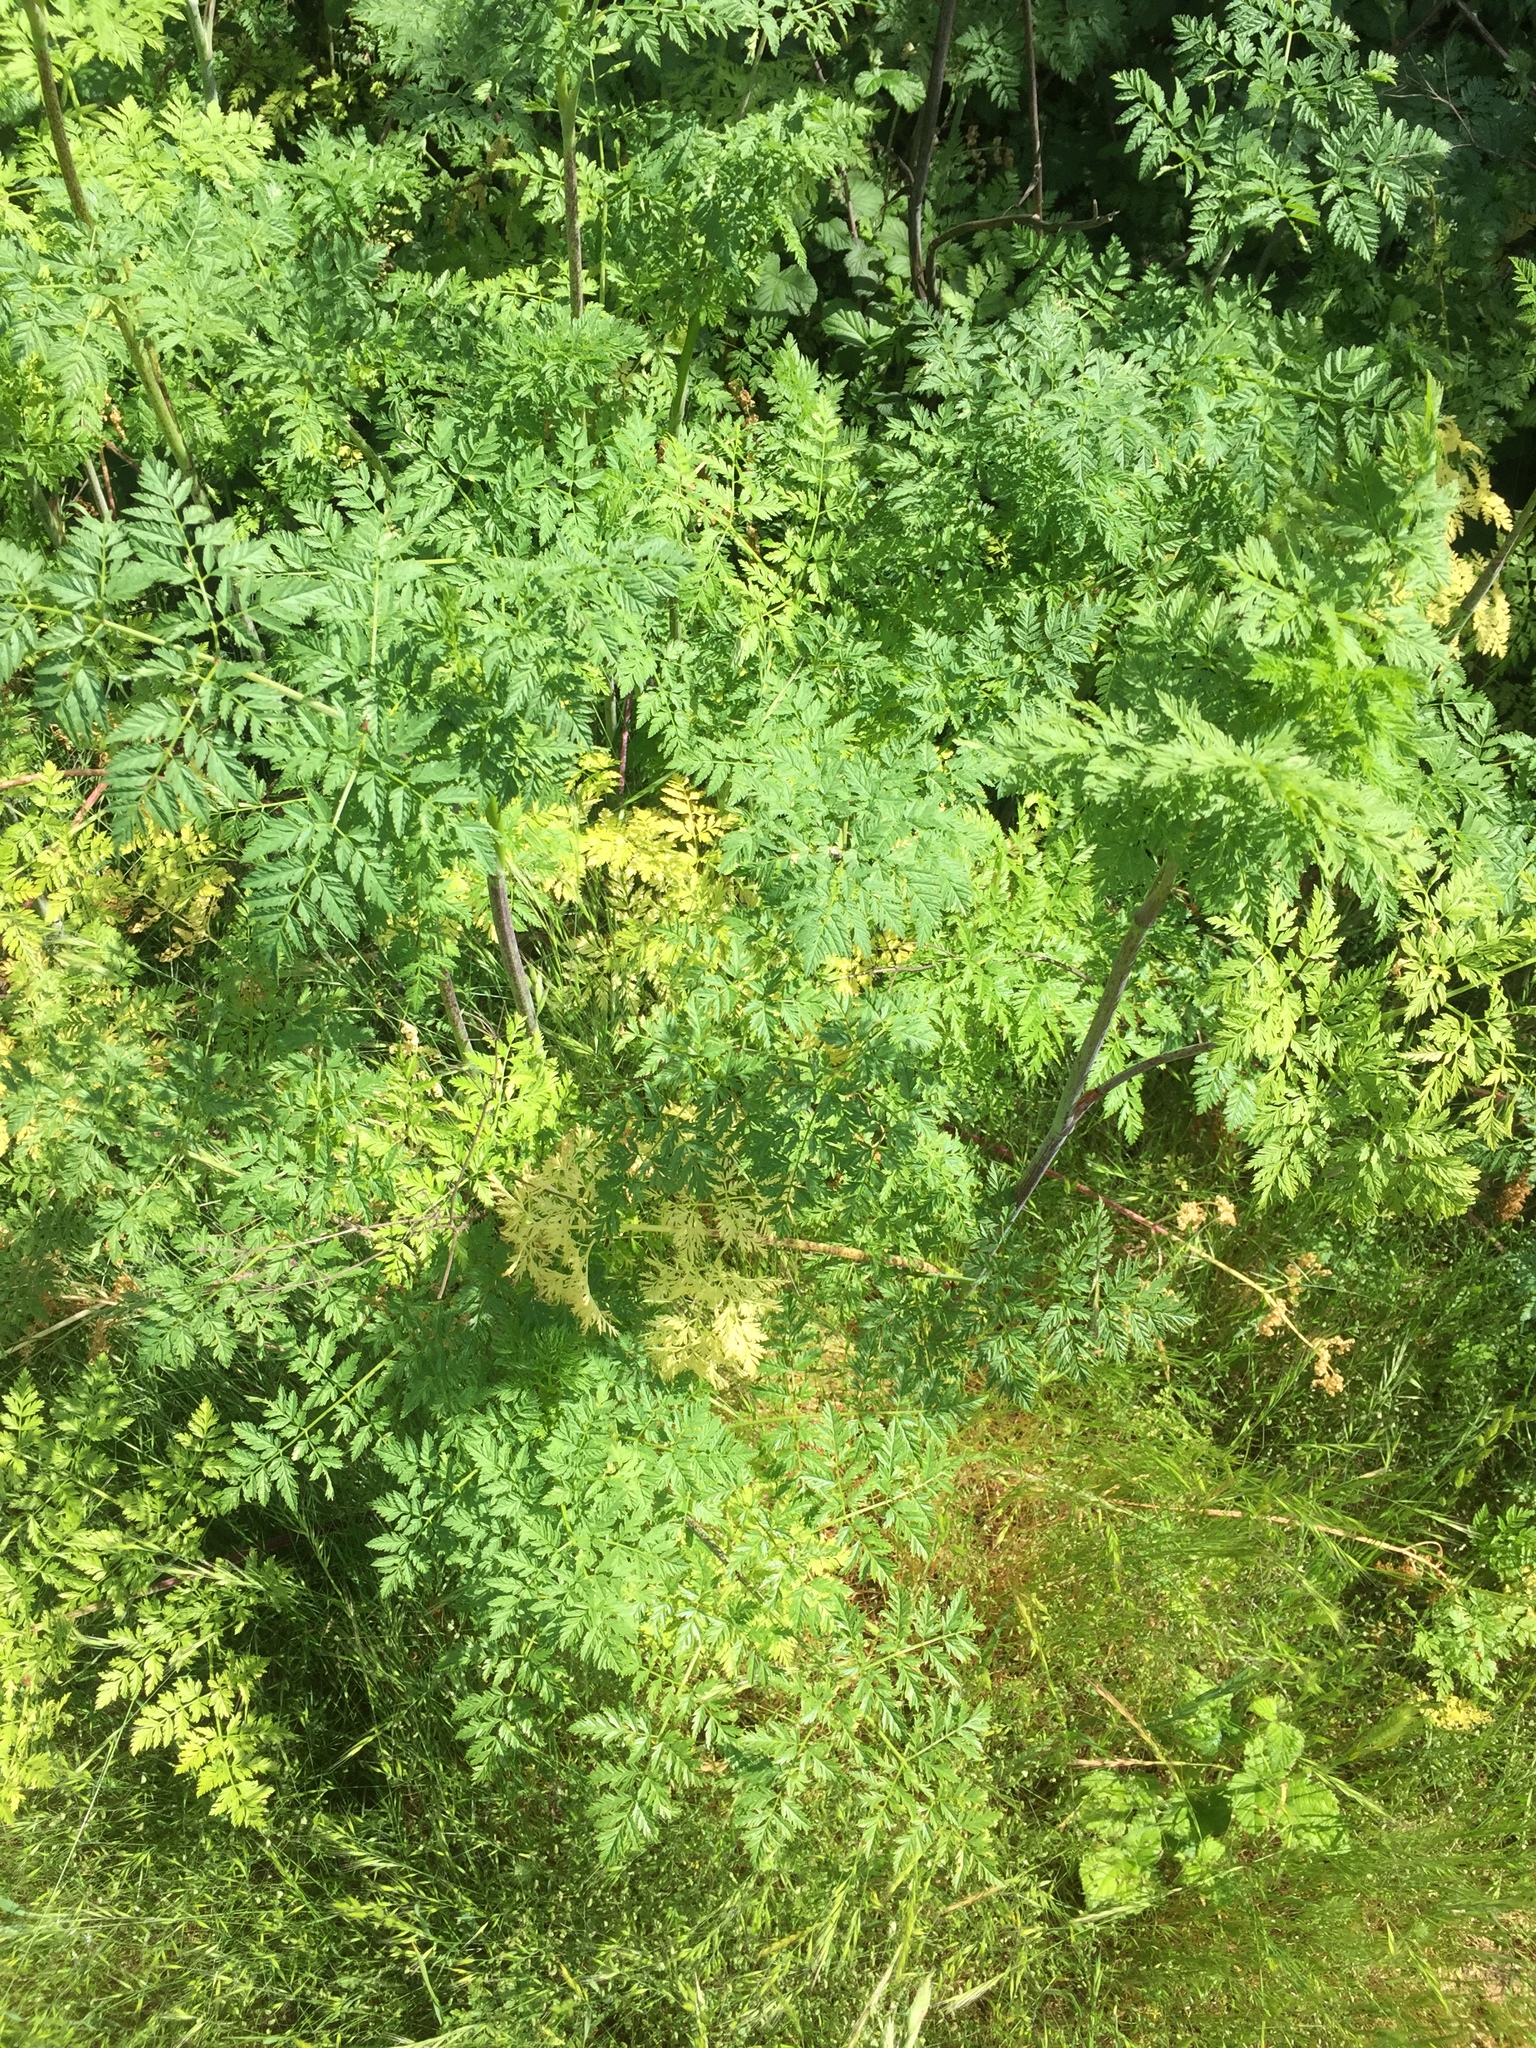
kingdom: Plantae
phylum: Tracheophyta
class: Magnoliopsida
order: Apiales
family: Apiaceae
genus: Conium
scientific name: Conium maculatum
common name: Hemlock
